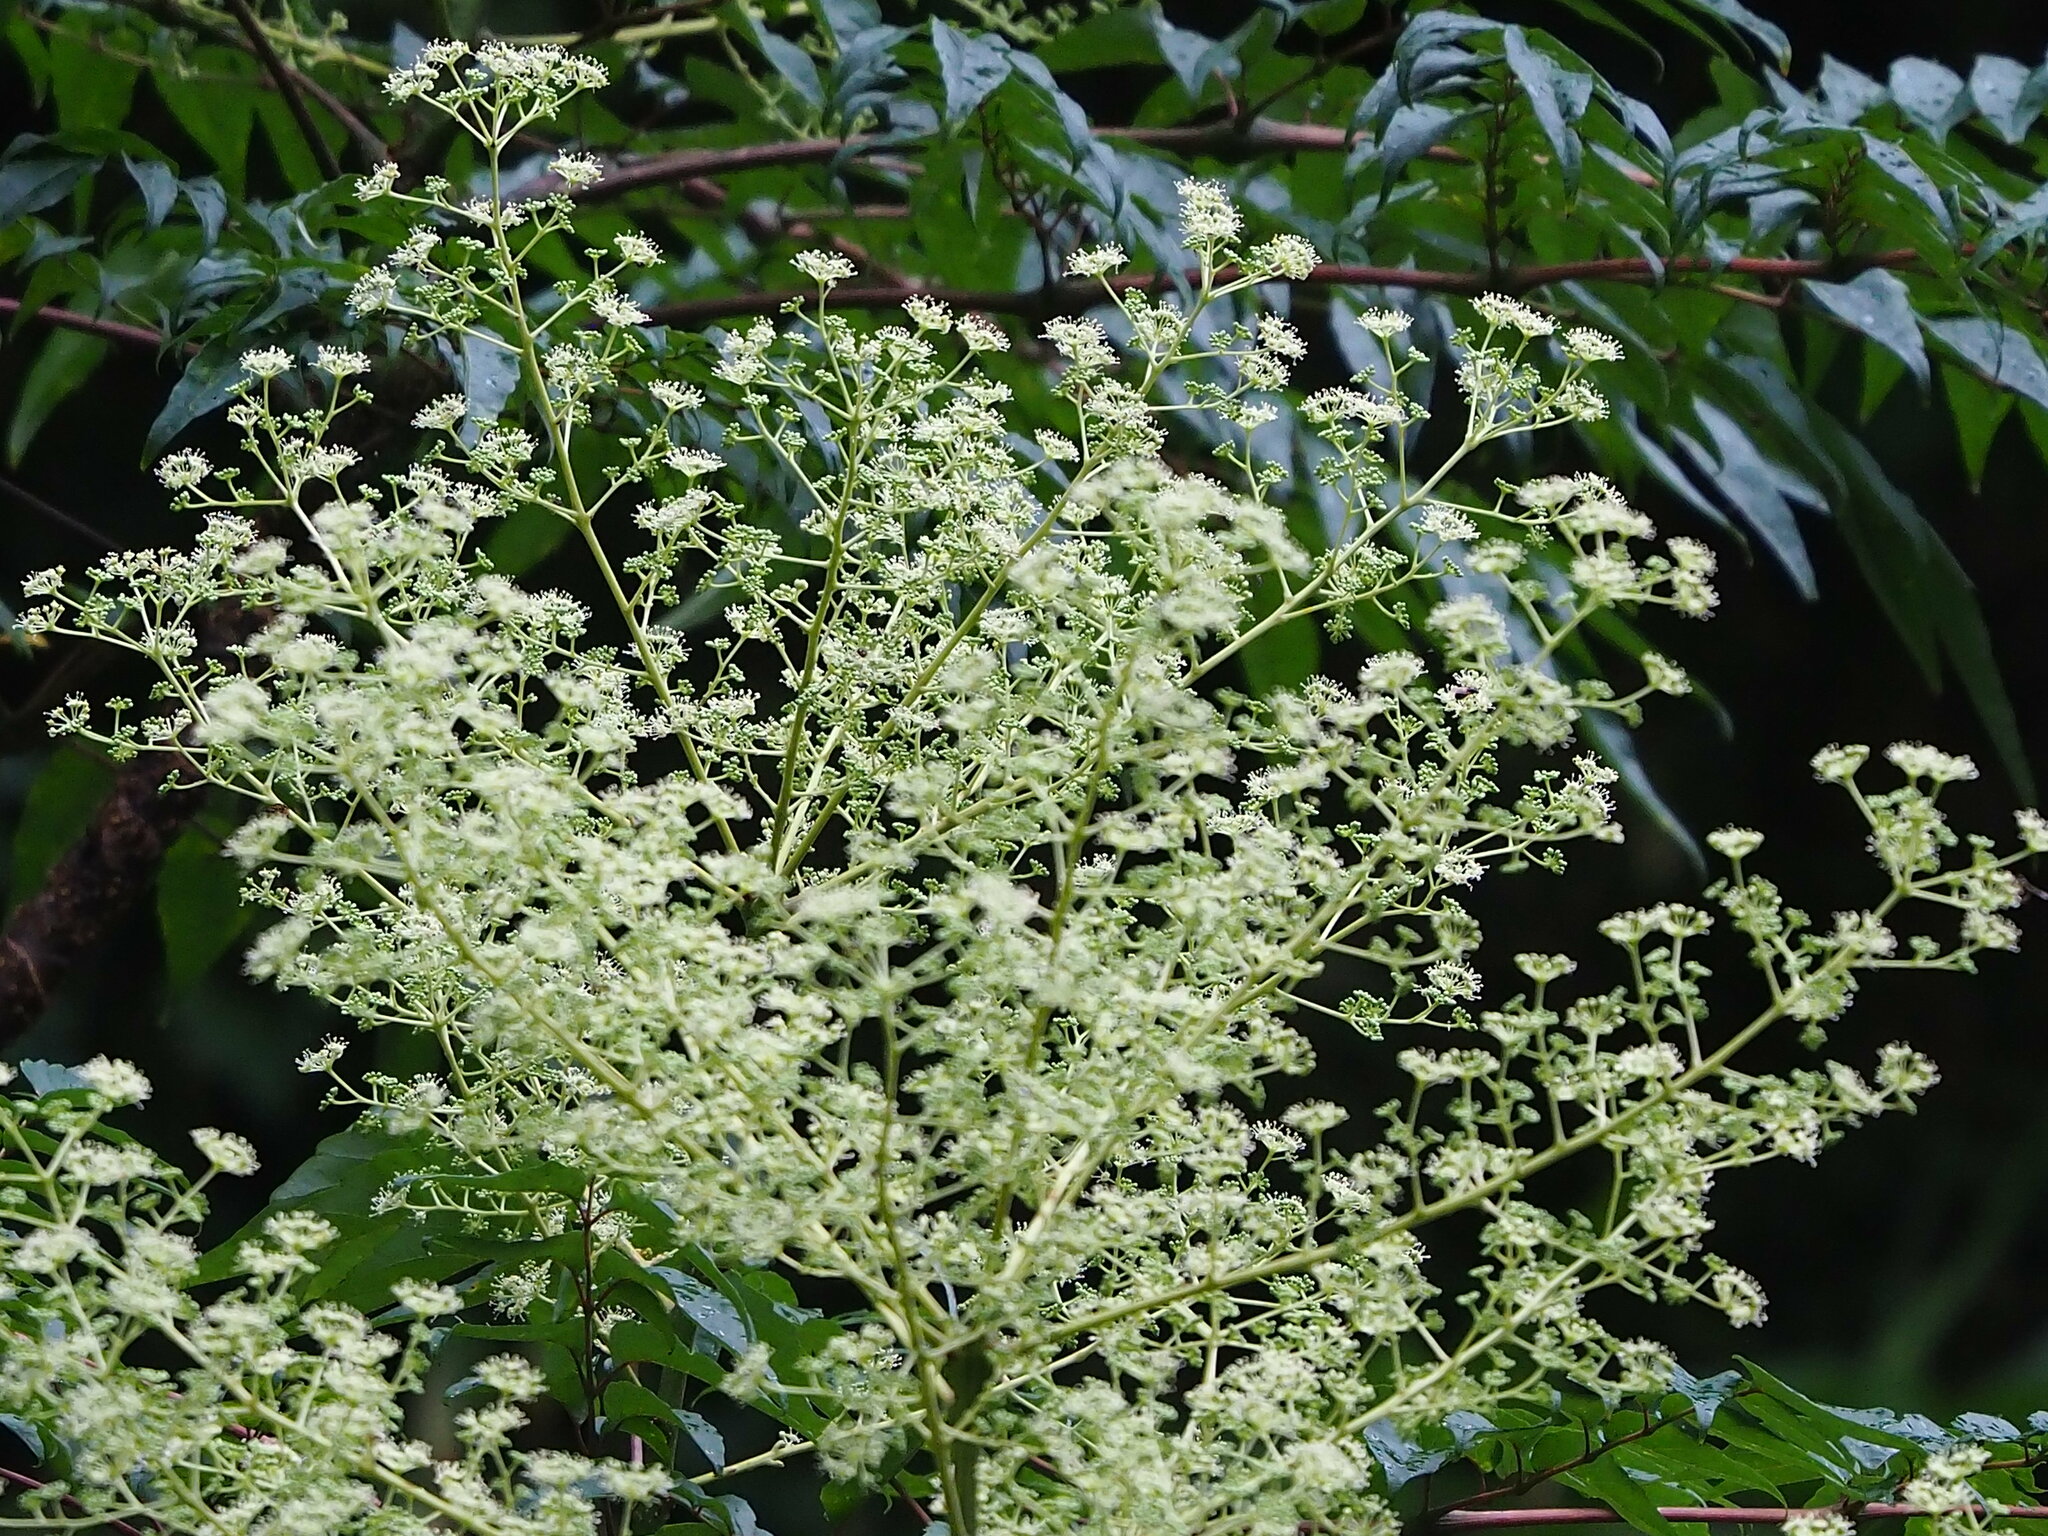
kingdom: Plantae
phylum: Tracheophyta
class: Magnoliopsida
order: Apiales
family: Araliaceae
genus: Aralia
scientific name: Aralia bipinnata
